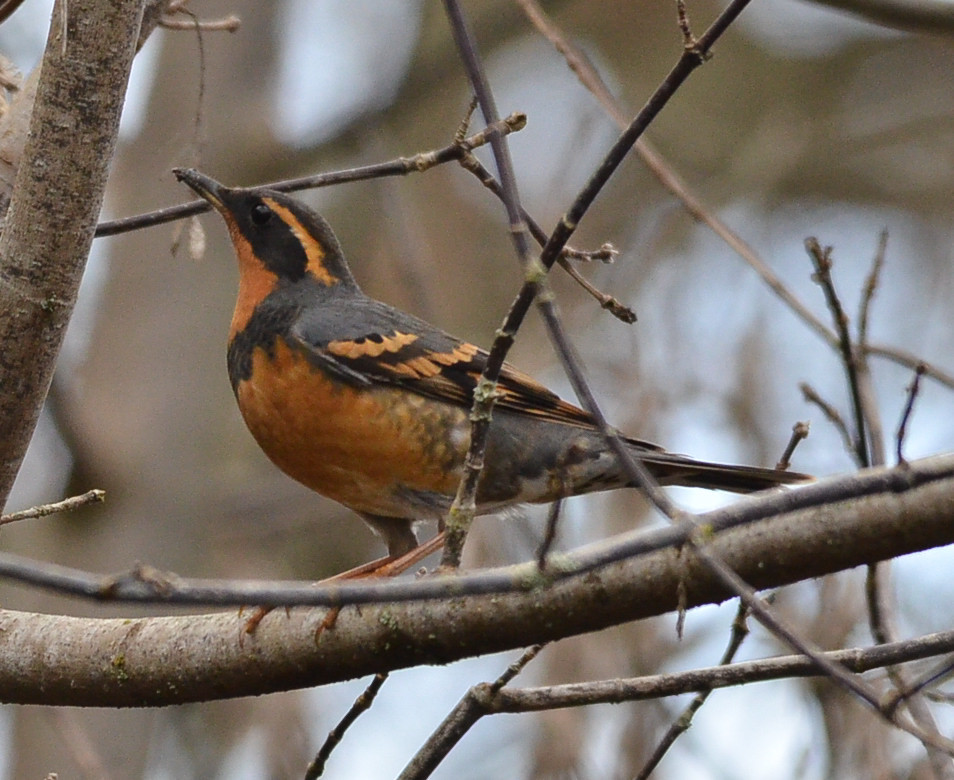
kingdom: Animalia
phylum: Chordata
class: Aves
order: Passeriformes
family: Turdidae
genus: Ixoreus
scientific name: Ixoreus naevius
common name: Varied thrush
